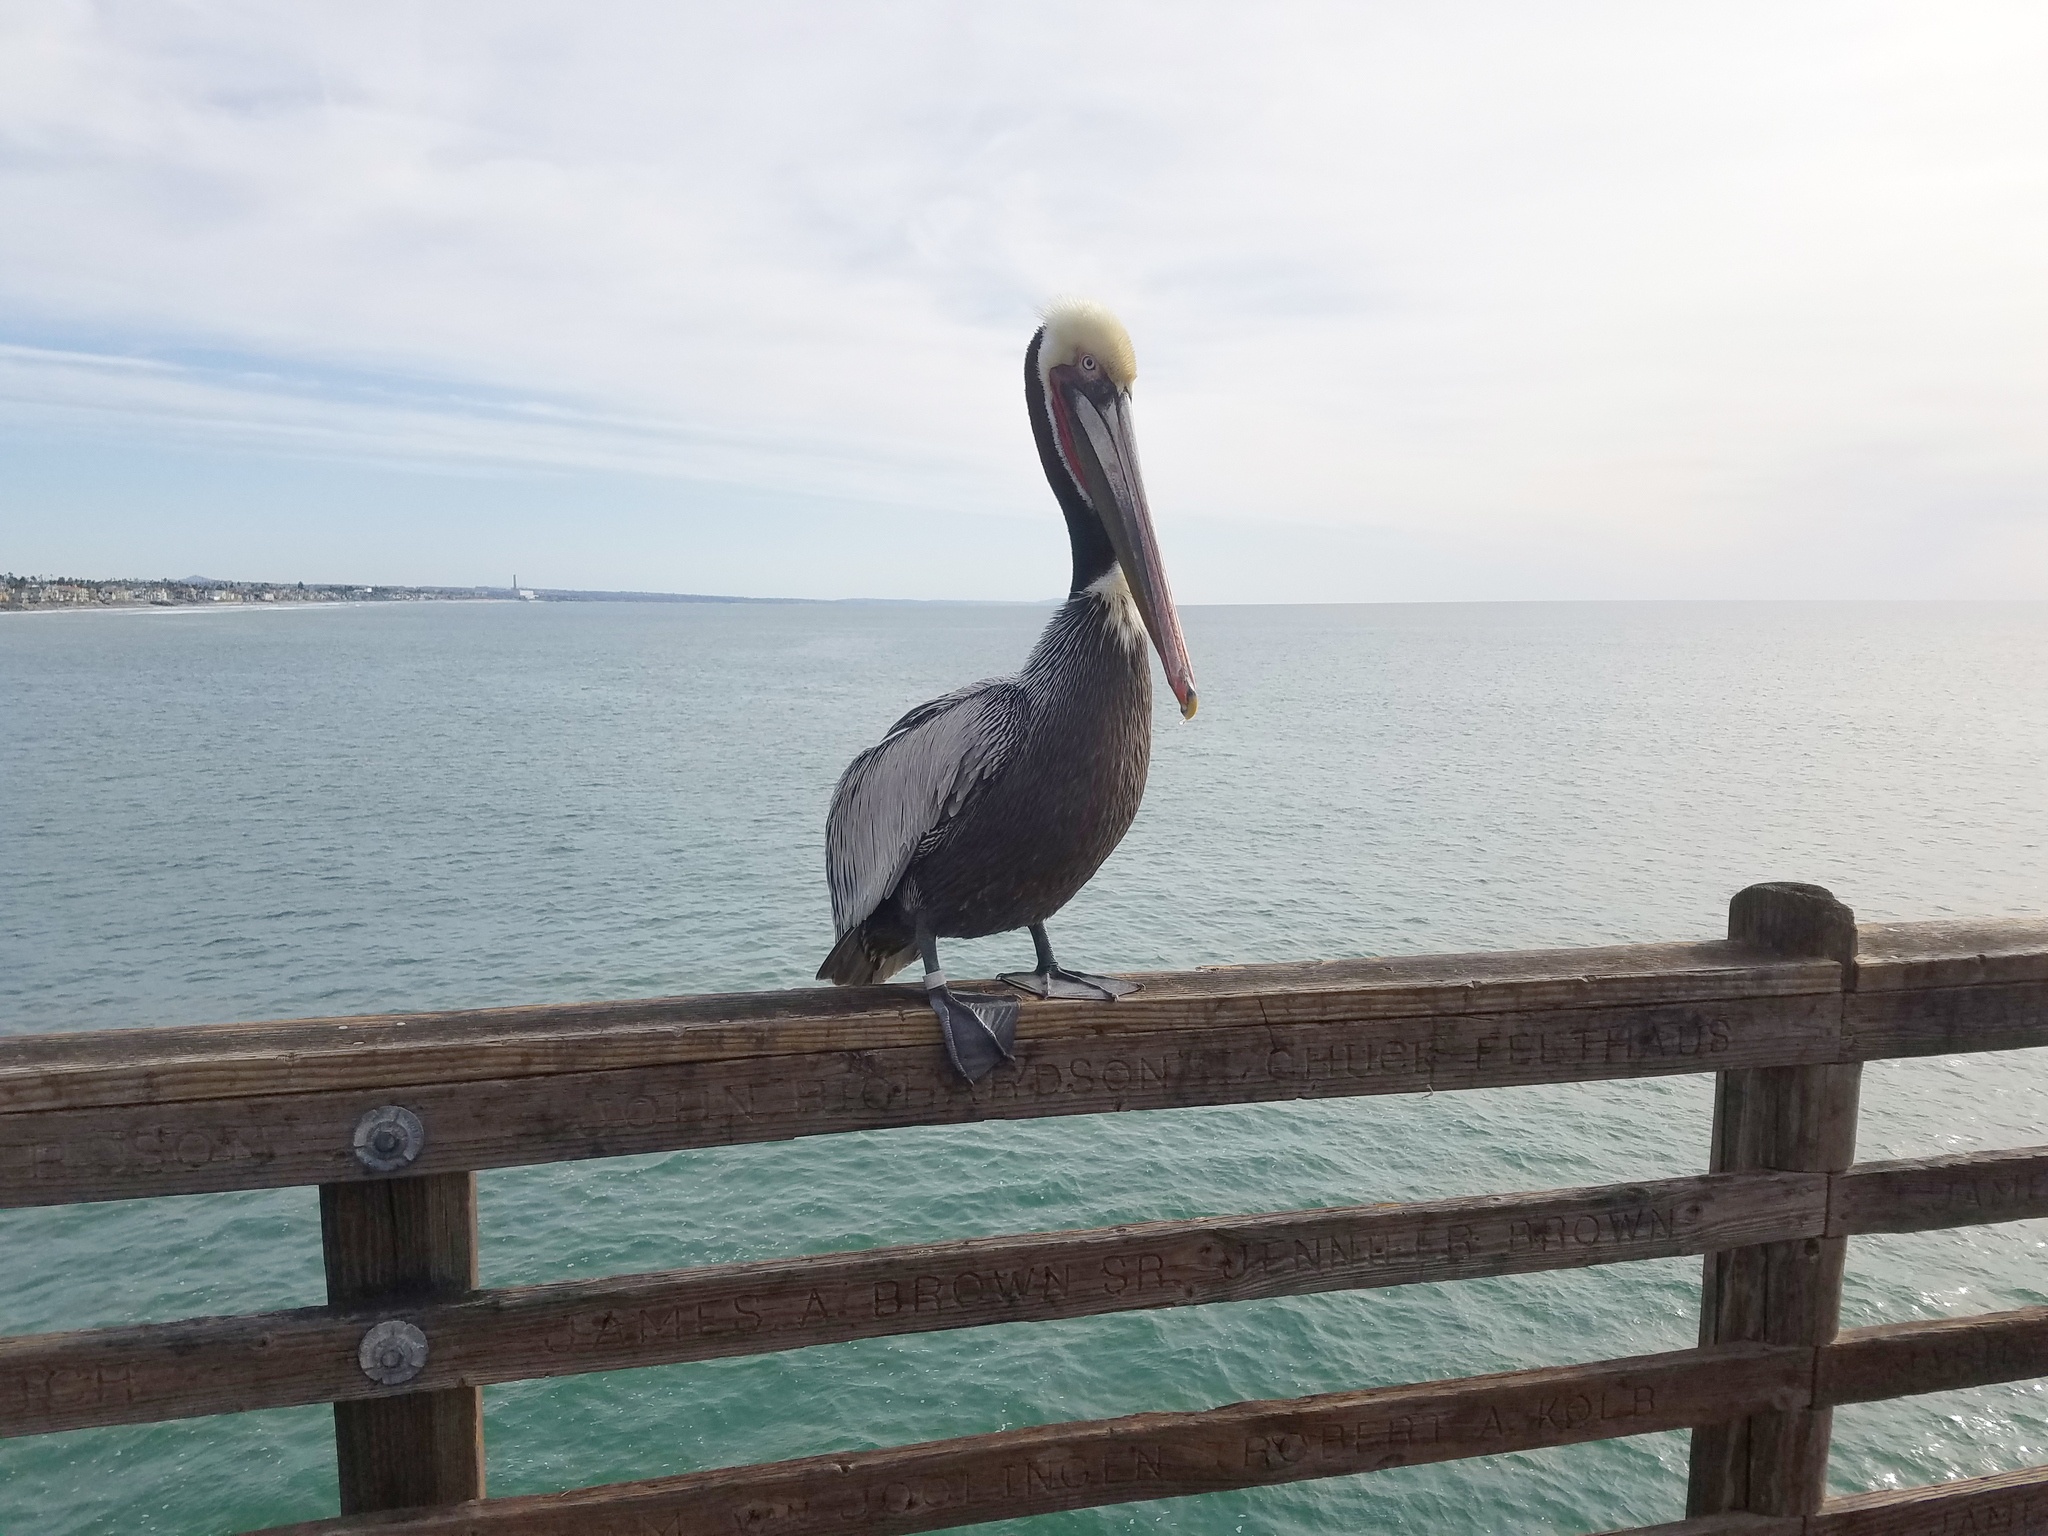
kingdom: Animalia
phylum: Chordata
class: Aves
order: Pelecaniformes
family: Pelecanidae
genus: Pelecanus
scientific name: Pelecanus occidentalis
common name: Brown pelican
